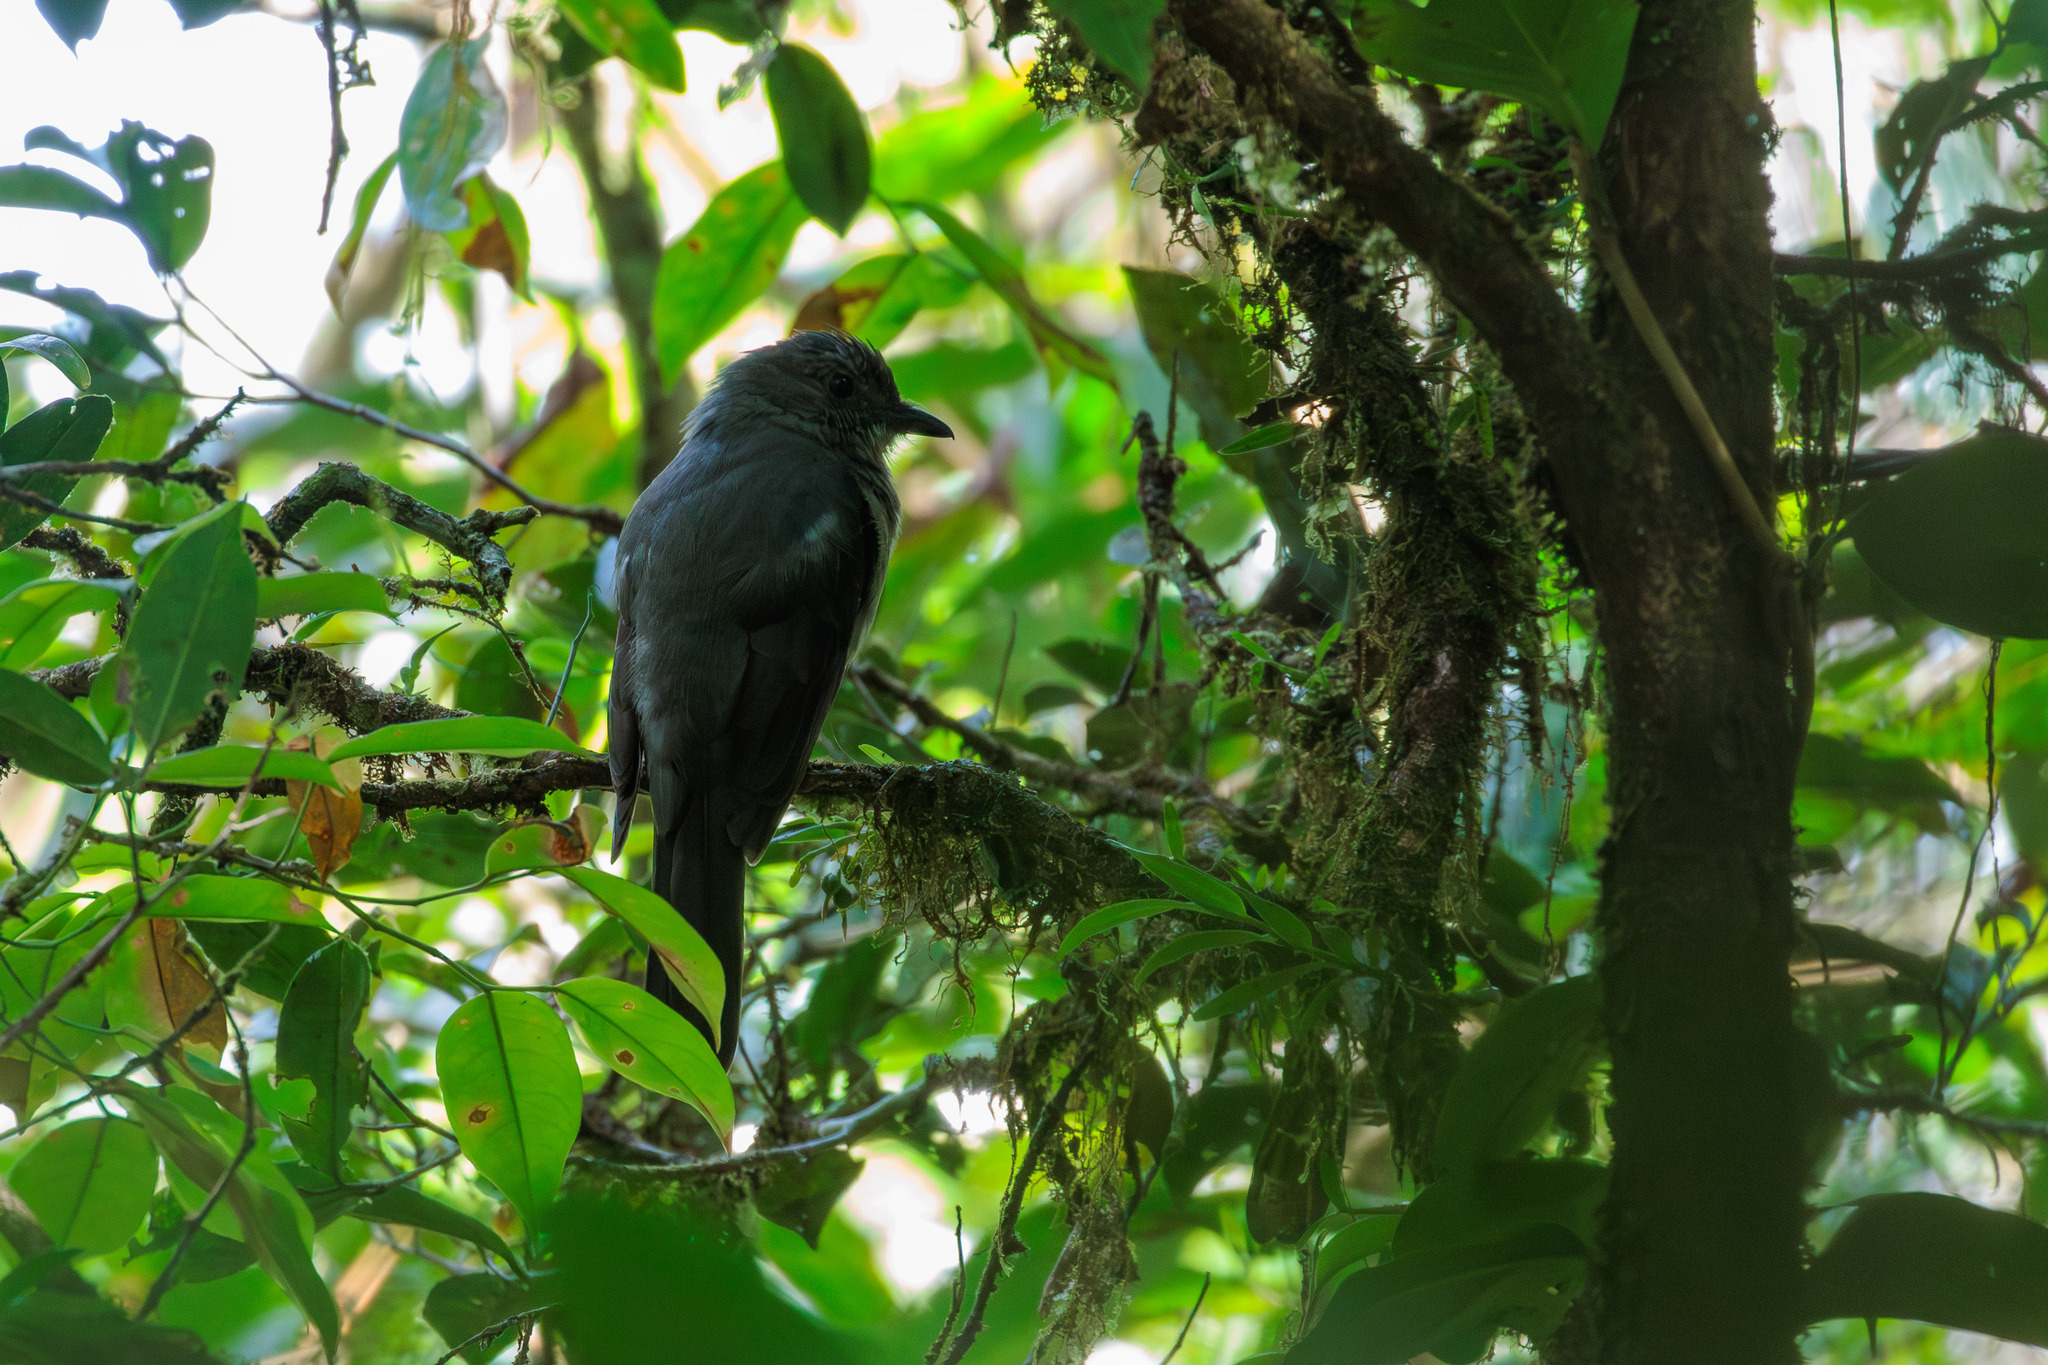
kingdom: Animalia
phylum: Chordata
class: Aves
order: Passeriformes
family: Cotingidae
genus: Lipaugus
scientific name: Lipaugus vociferans
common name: Screaming piha
